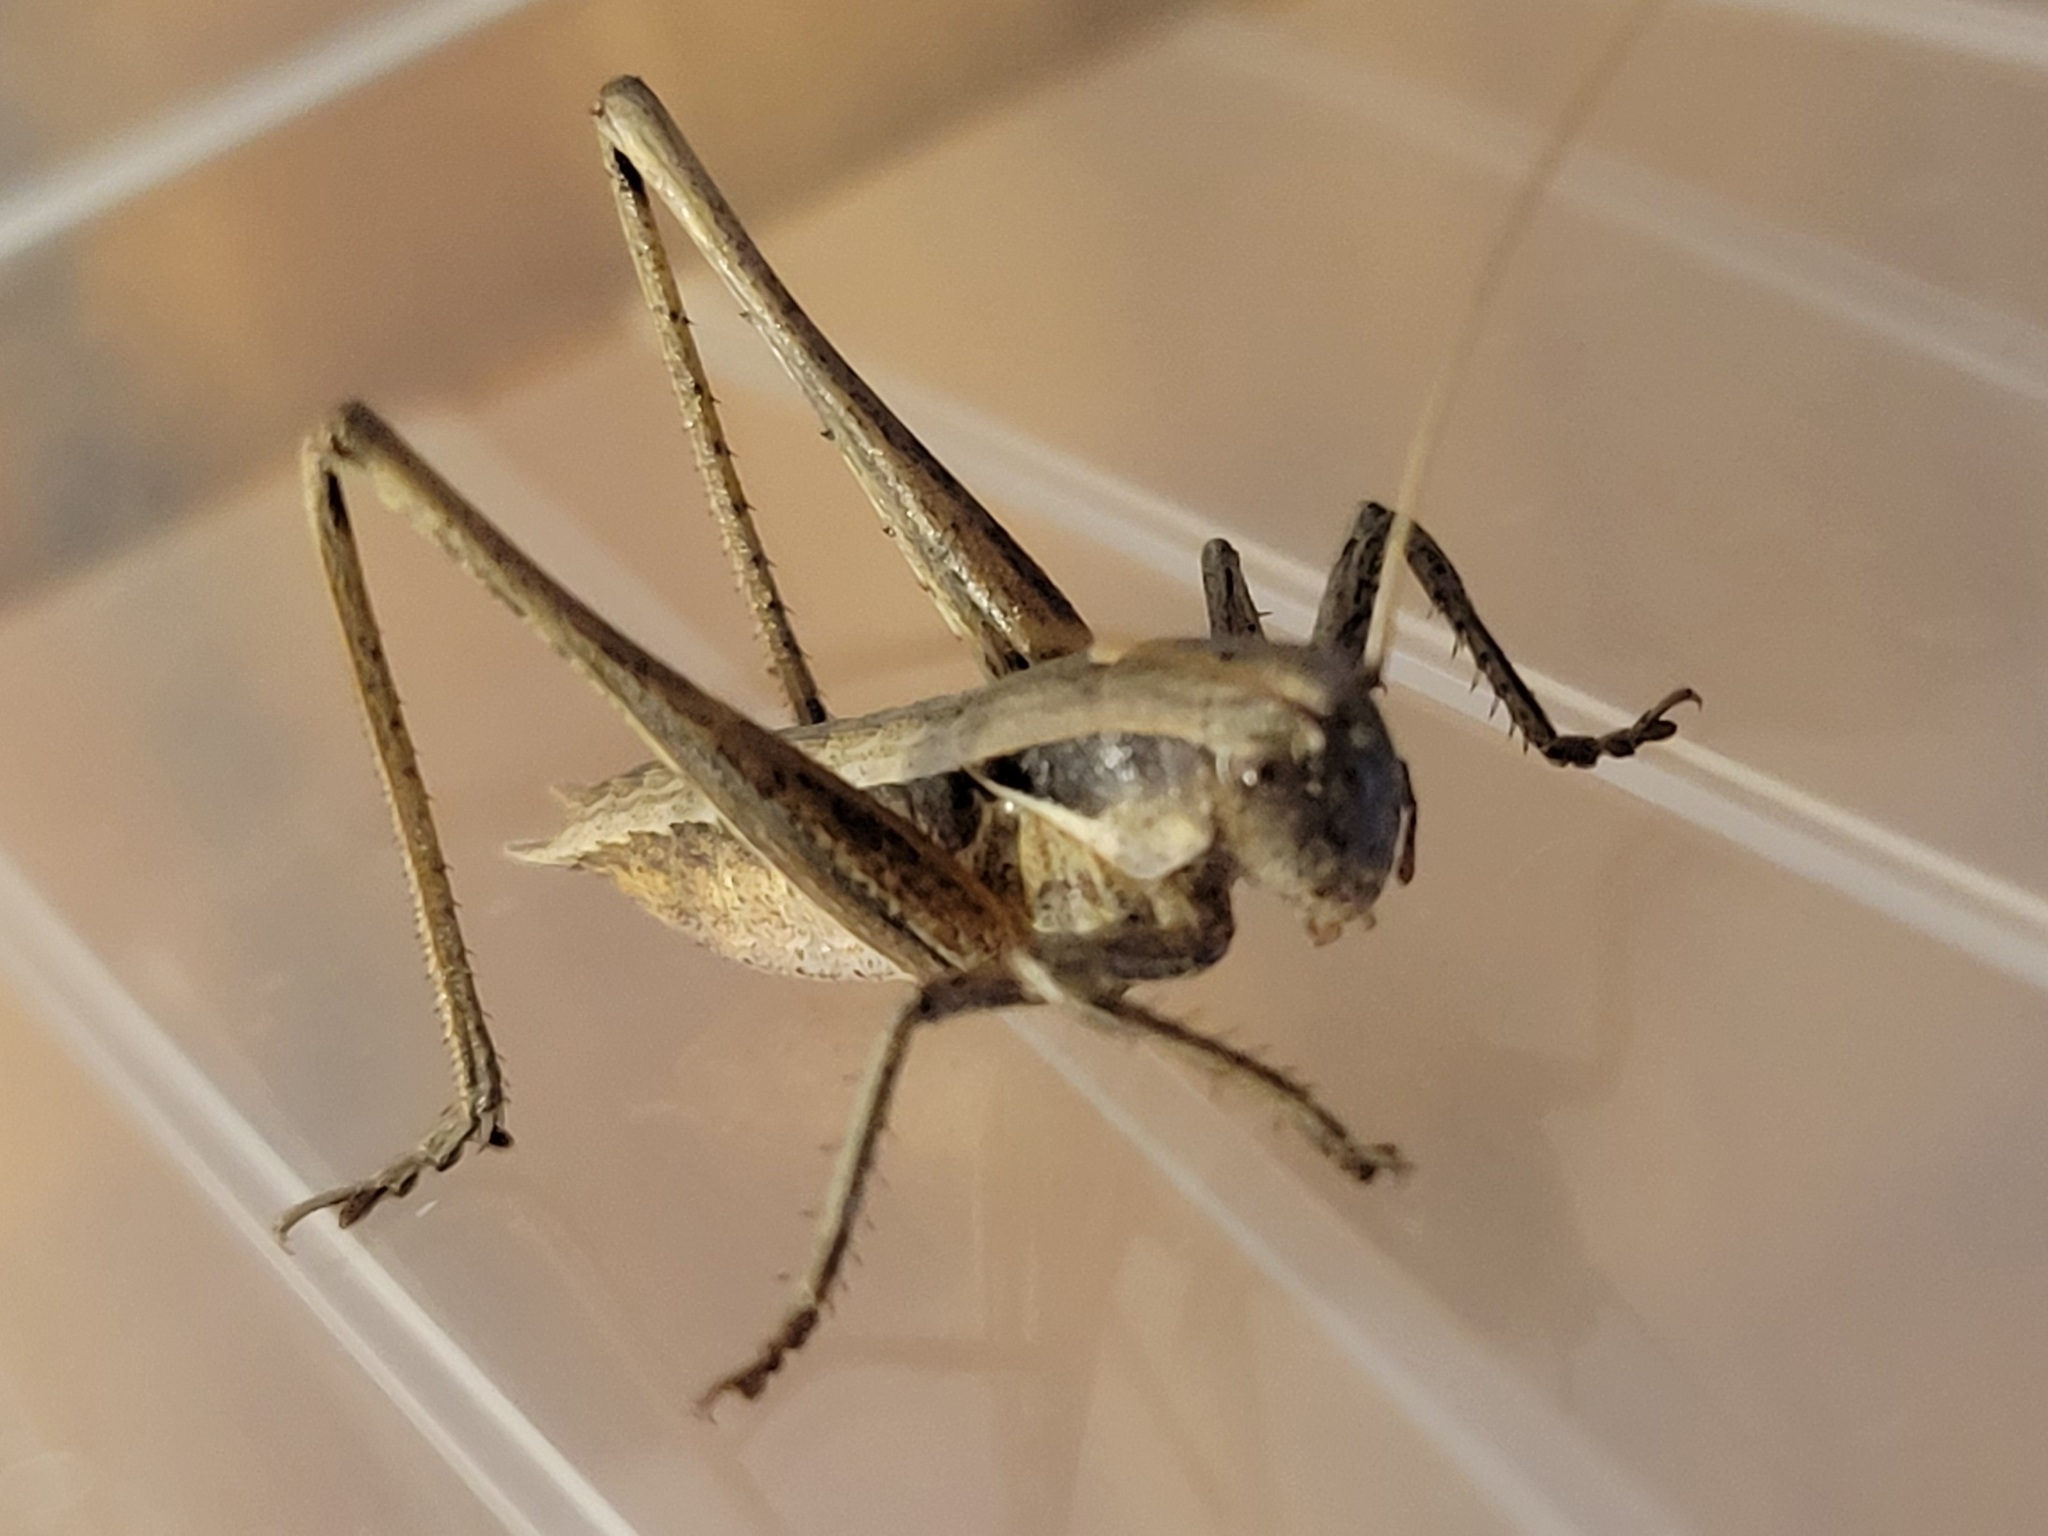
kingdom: Animalia
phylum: Arthropoda
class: Insecta
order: Orthoptera
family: Tettigoniidae
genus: Atlanticus
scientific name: Atlanticus glaber
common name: Smooth shield-bearer
